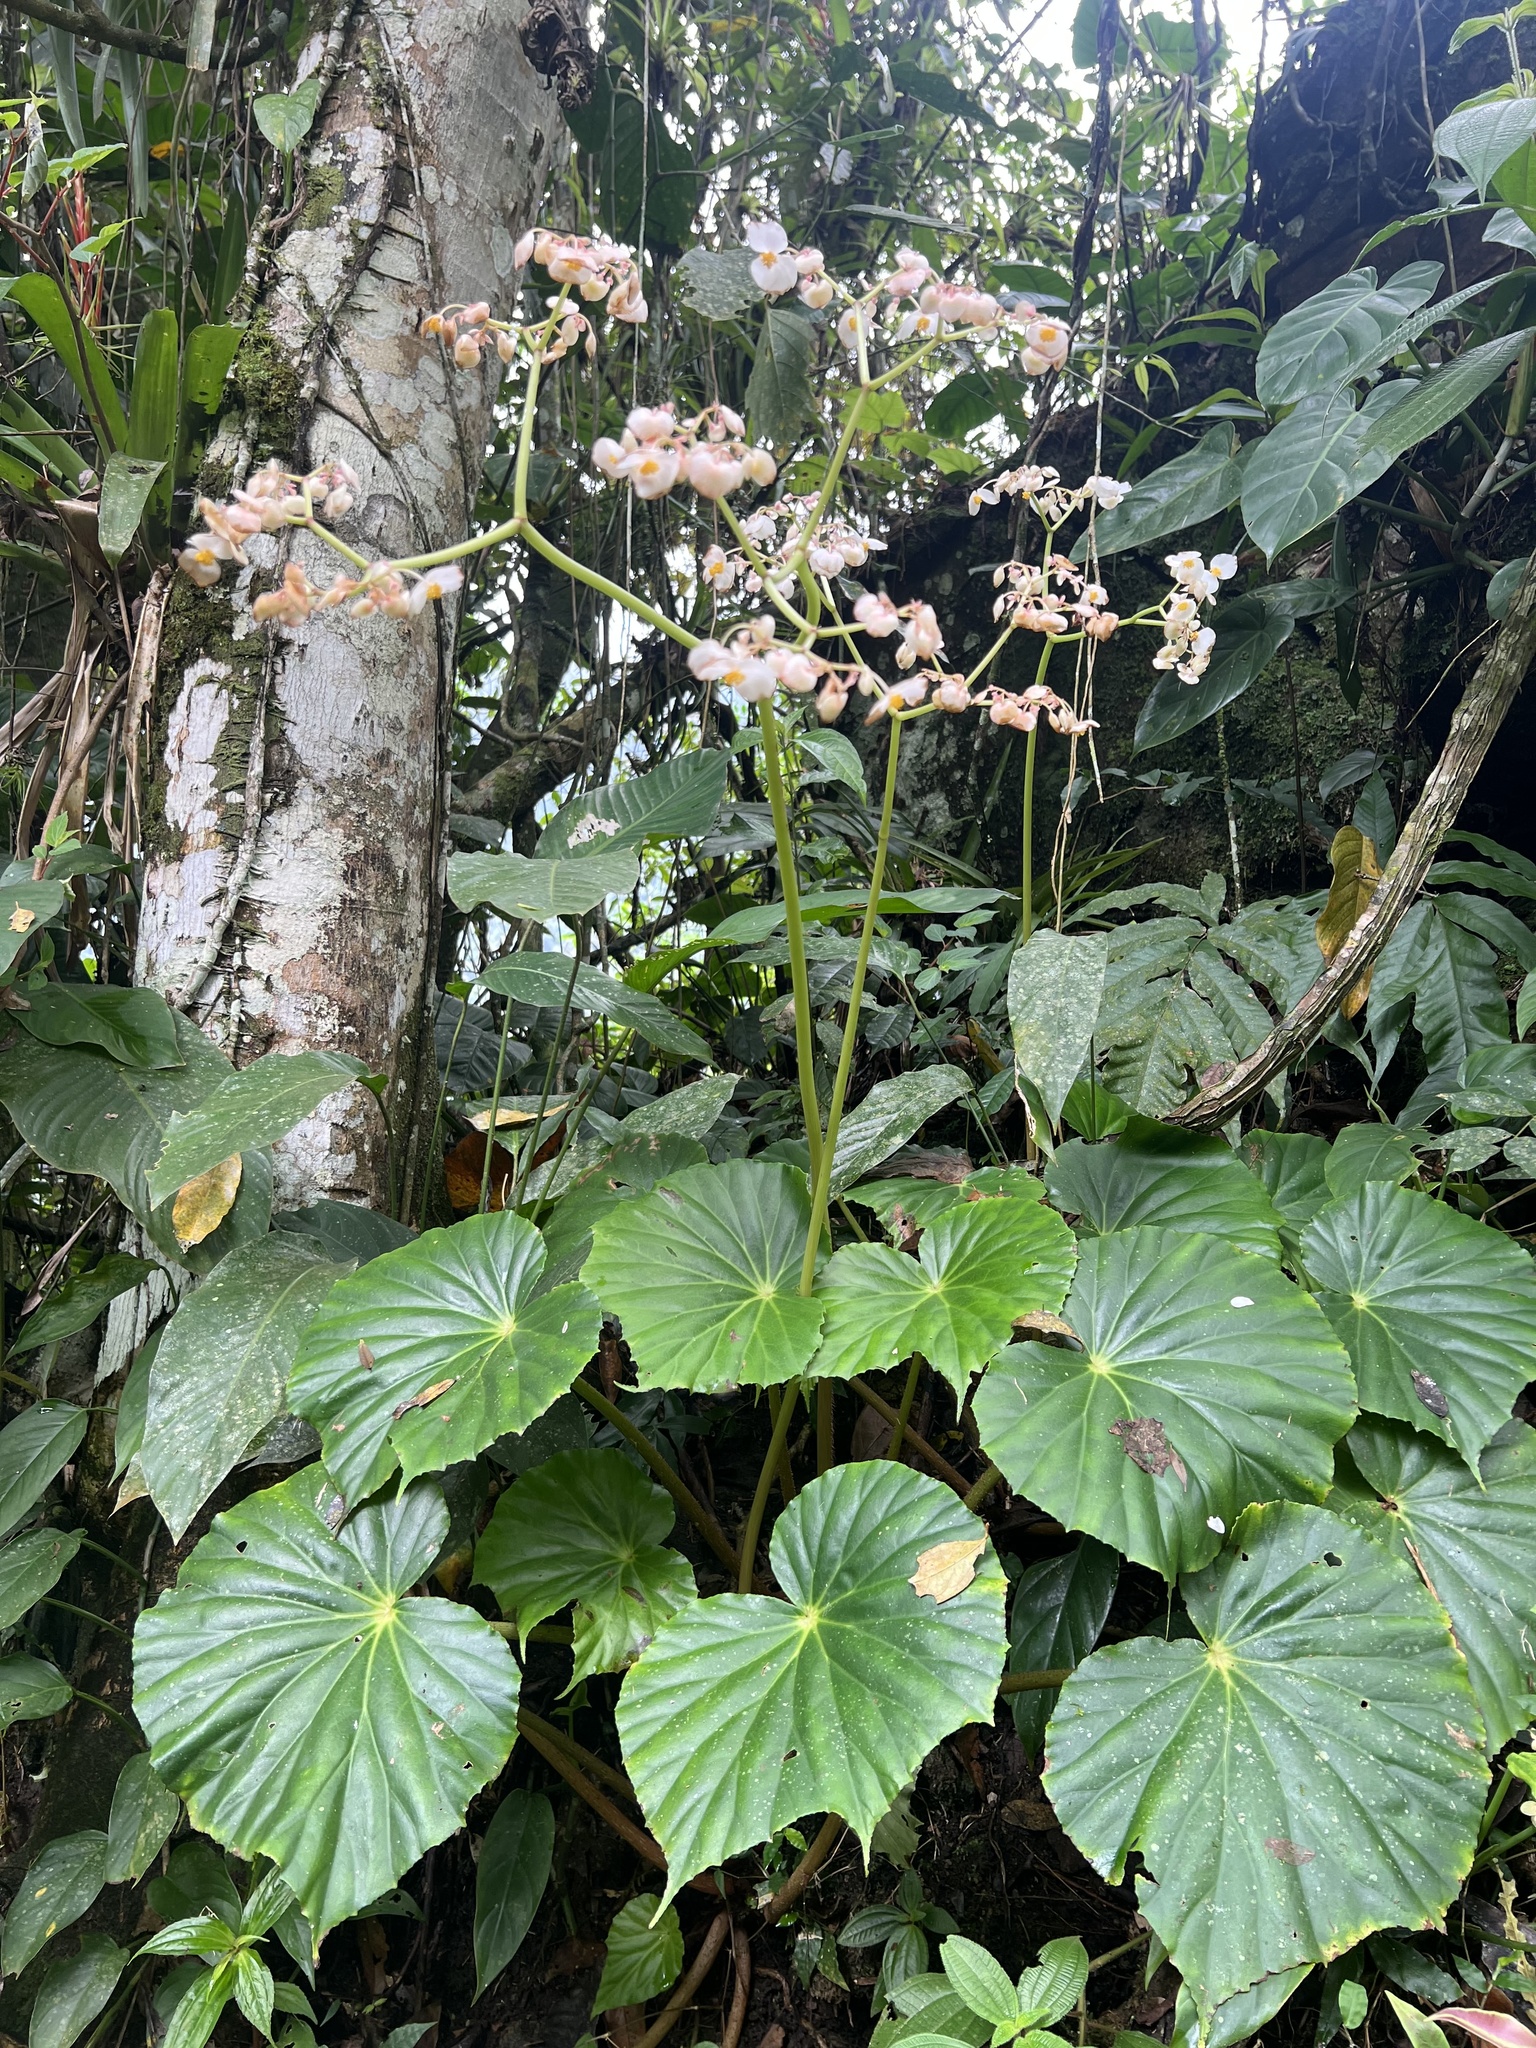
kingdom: Plantae
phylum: Tracheophyta
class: Magnoliopsida
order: Cucurbitales
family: Begoniaceae
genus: Begonia
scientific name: Begonia urophylla
